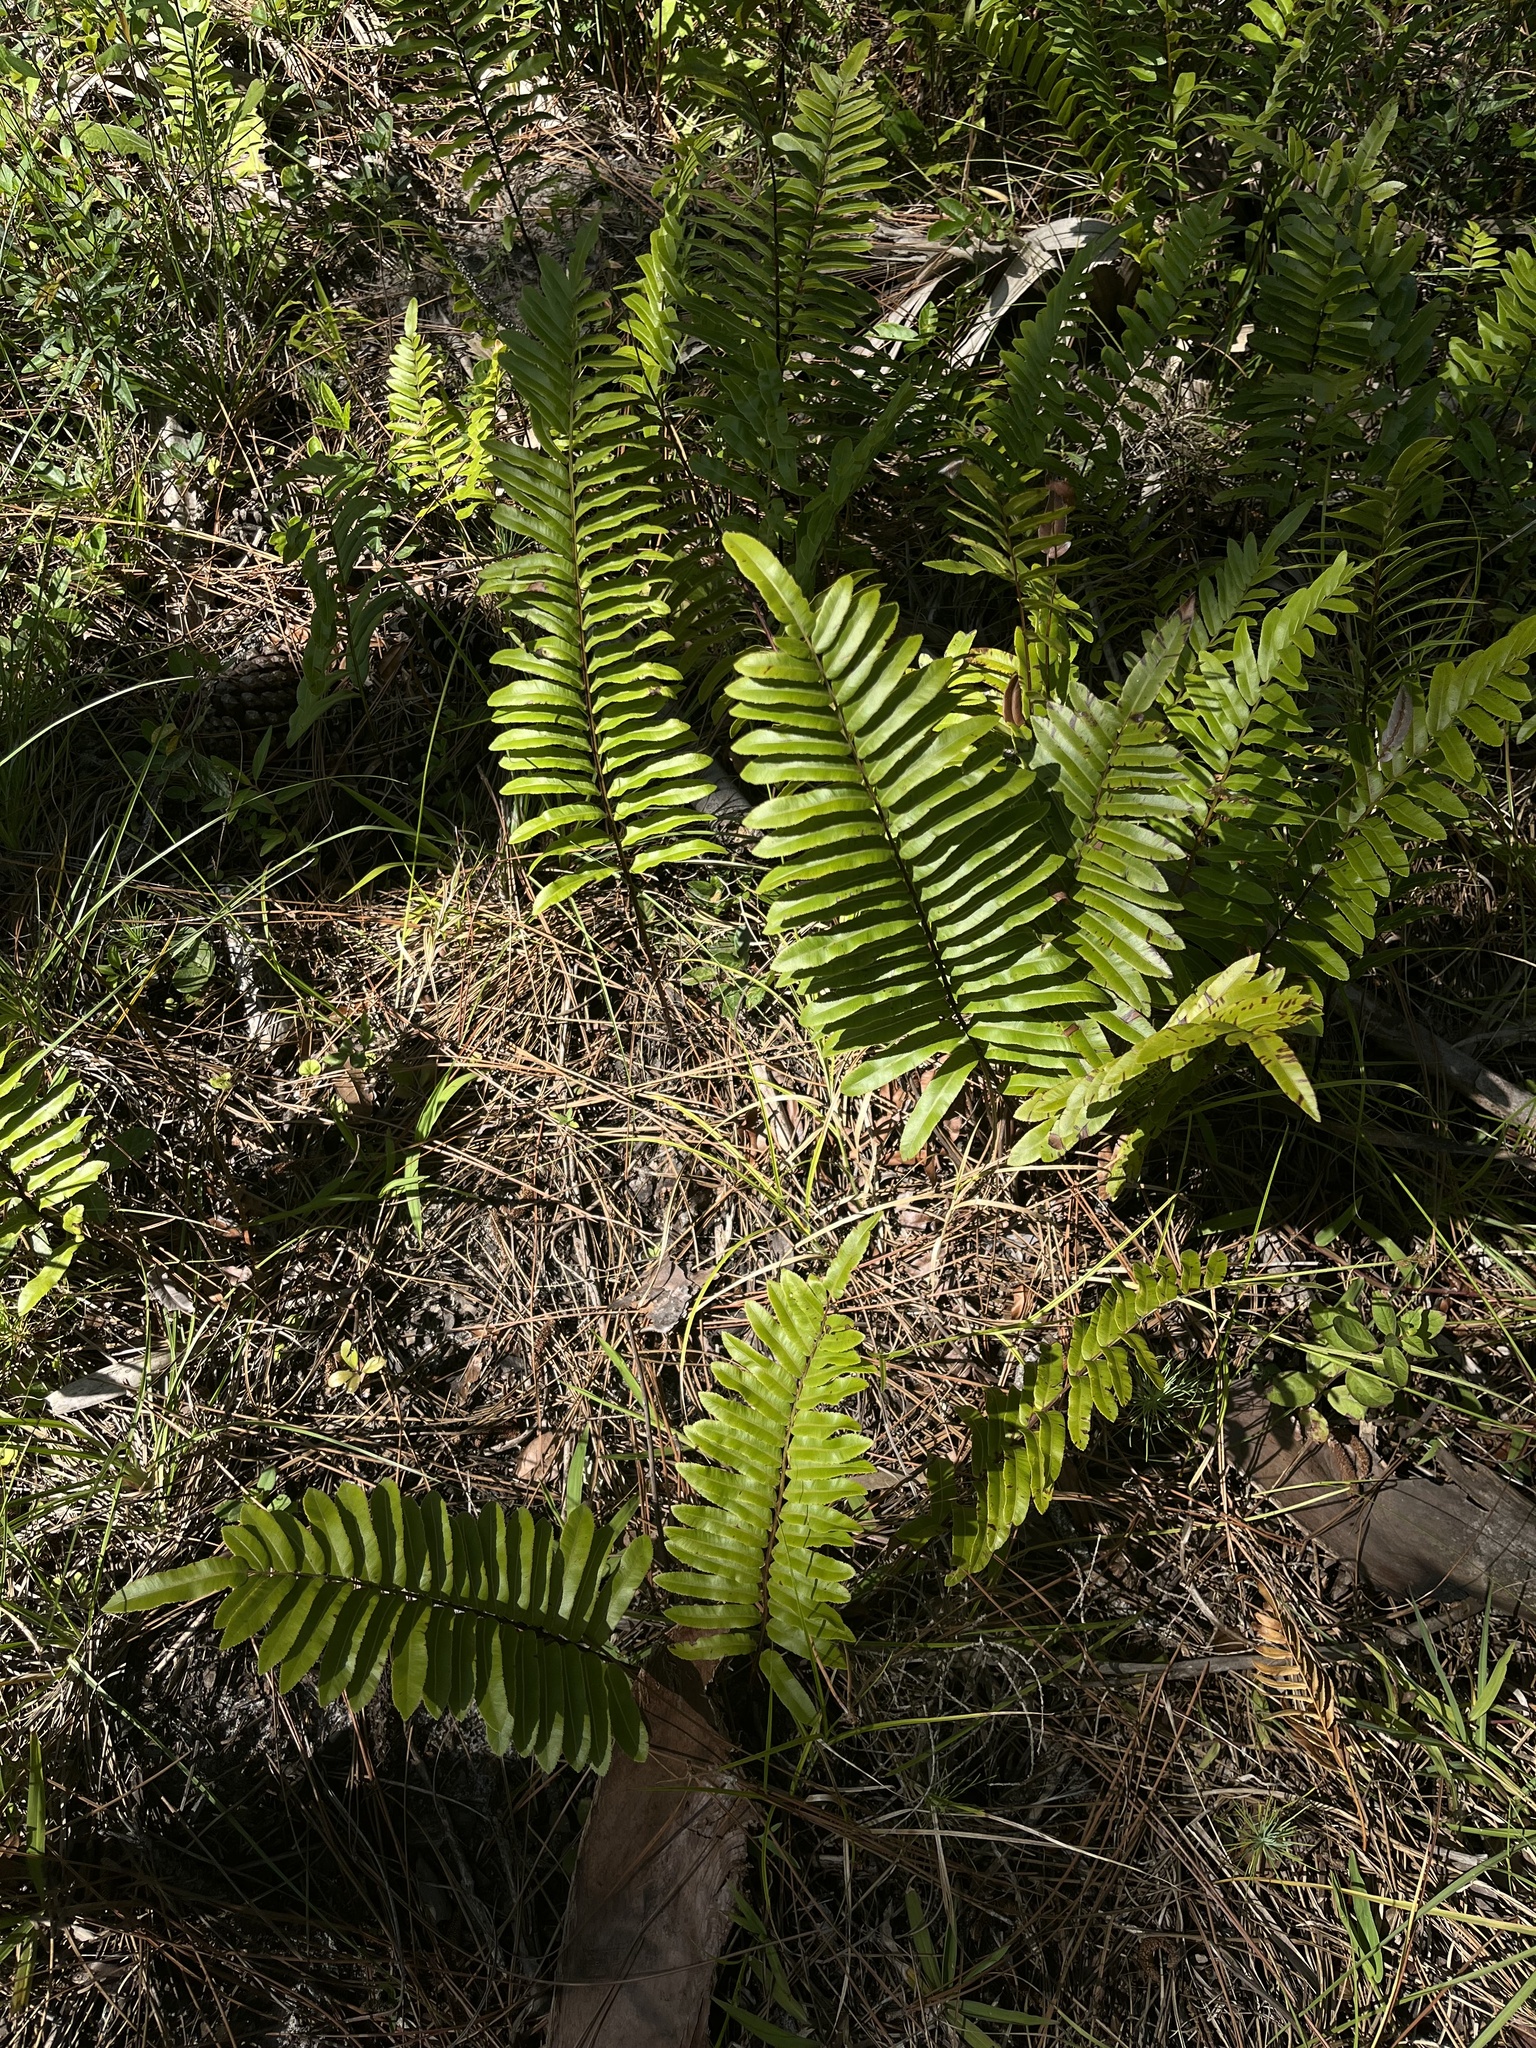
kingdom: Plantae
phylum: Tracheophyta
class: Polypodiopsida
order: Polypodiales
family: Blechnaceae
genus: Telmatoblechnum
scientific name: Telmatoblechnum serrulatum
